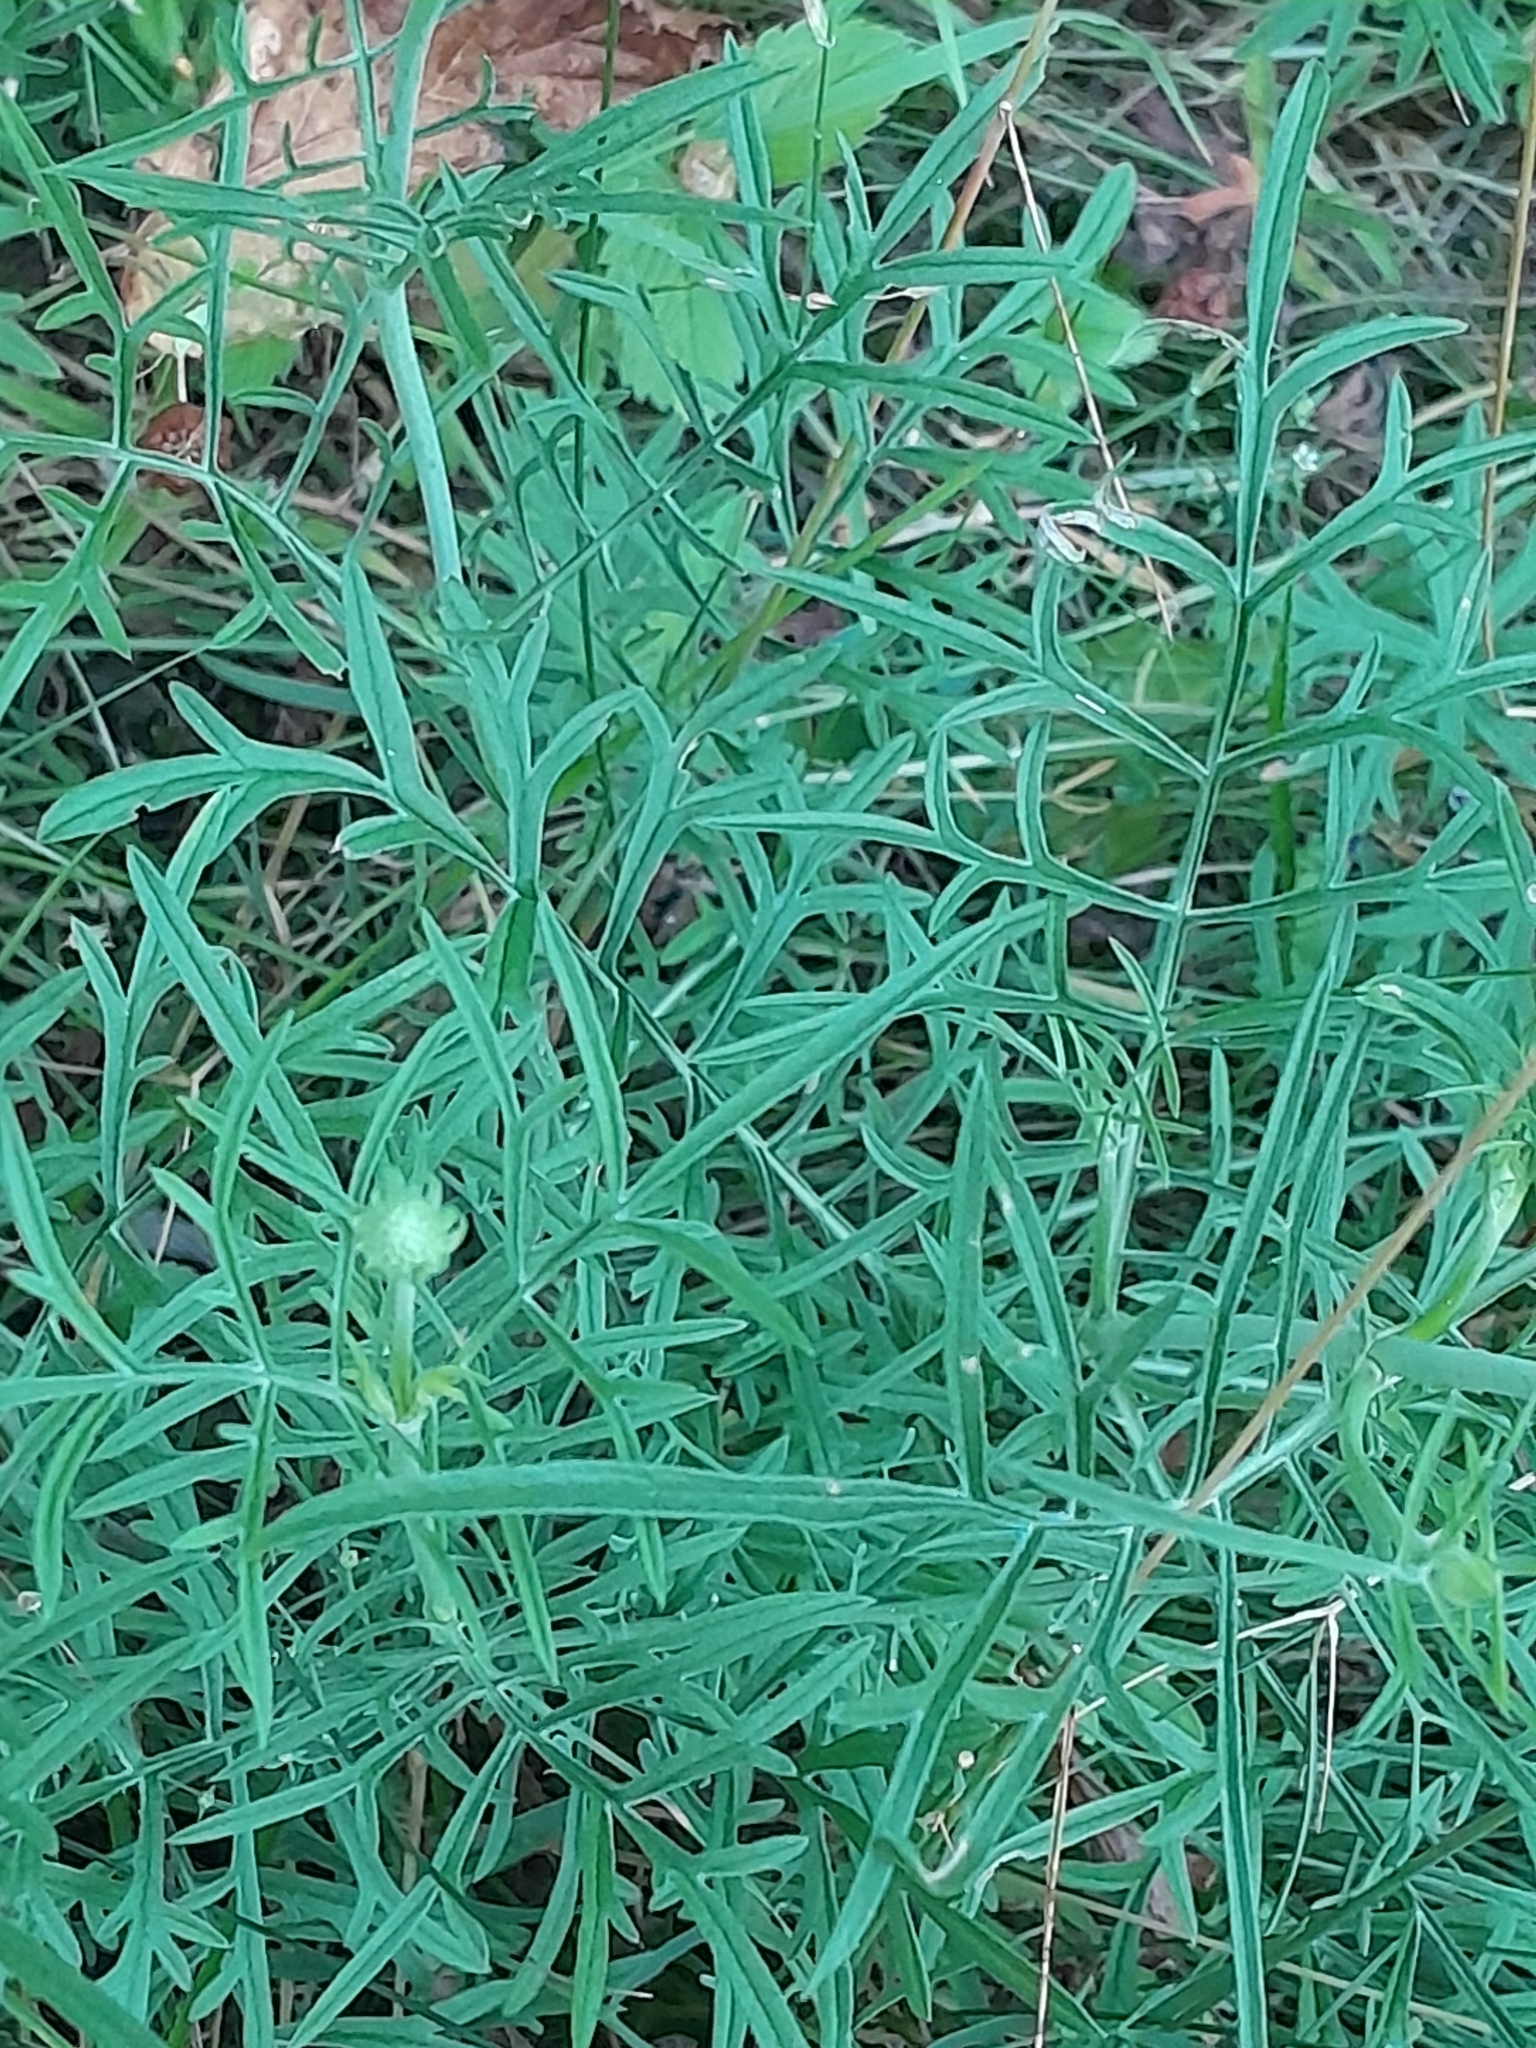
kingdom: Plantae
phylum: Tracheophyta
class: Magnoliopsida
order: Dipsacales
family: Caprifoliaceae
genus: Scabiosa
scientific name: Scabiosa ochroleuca
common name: Cream pincushions
